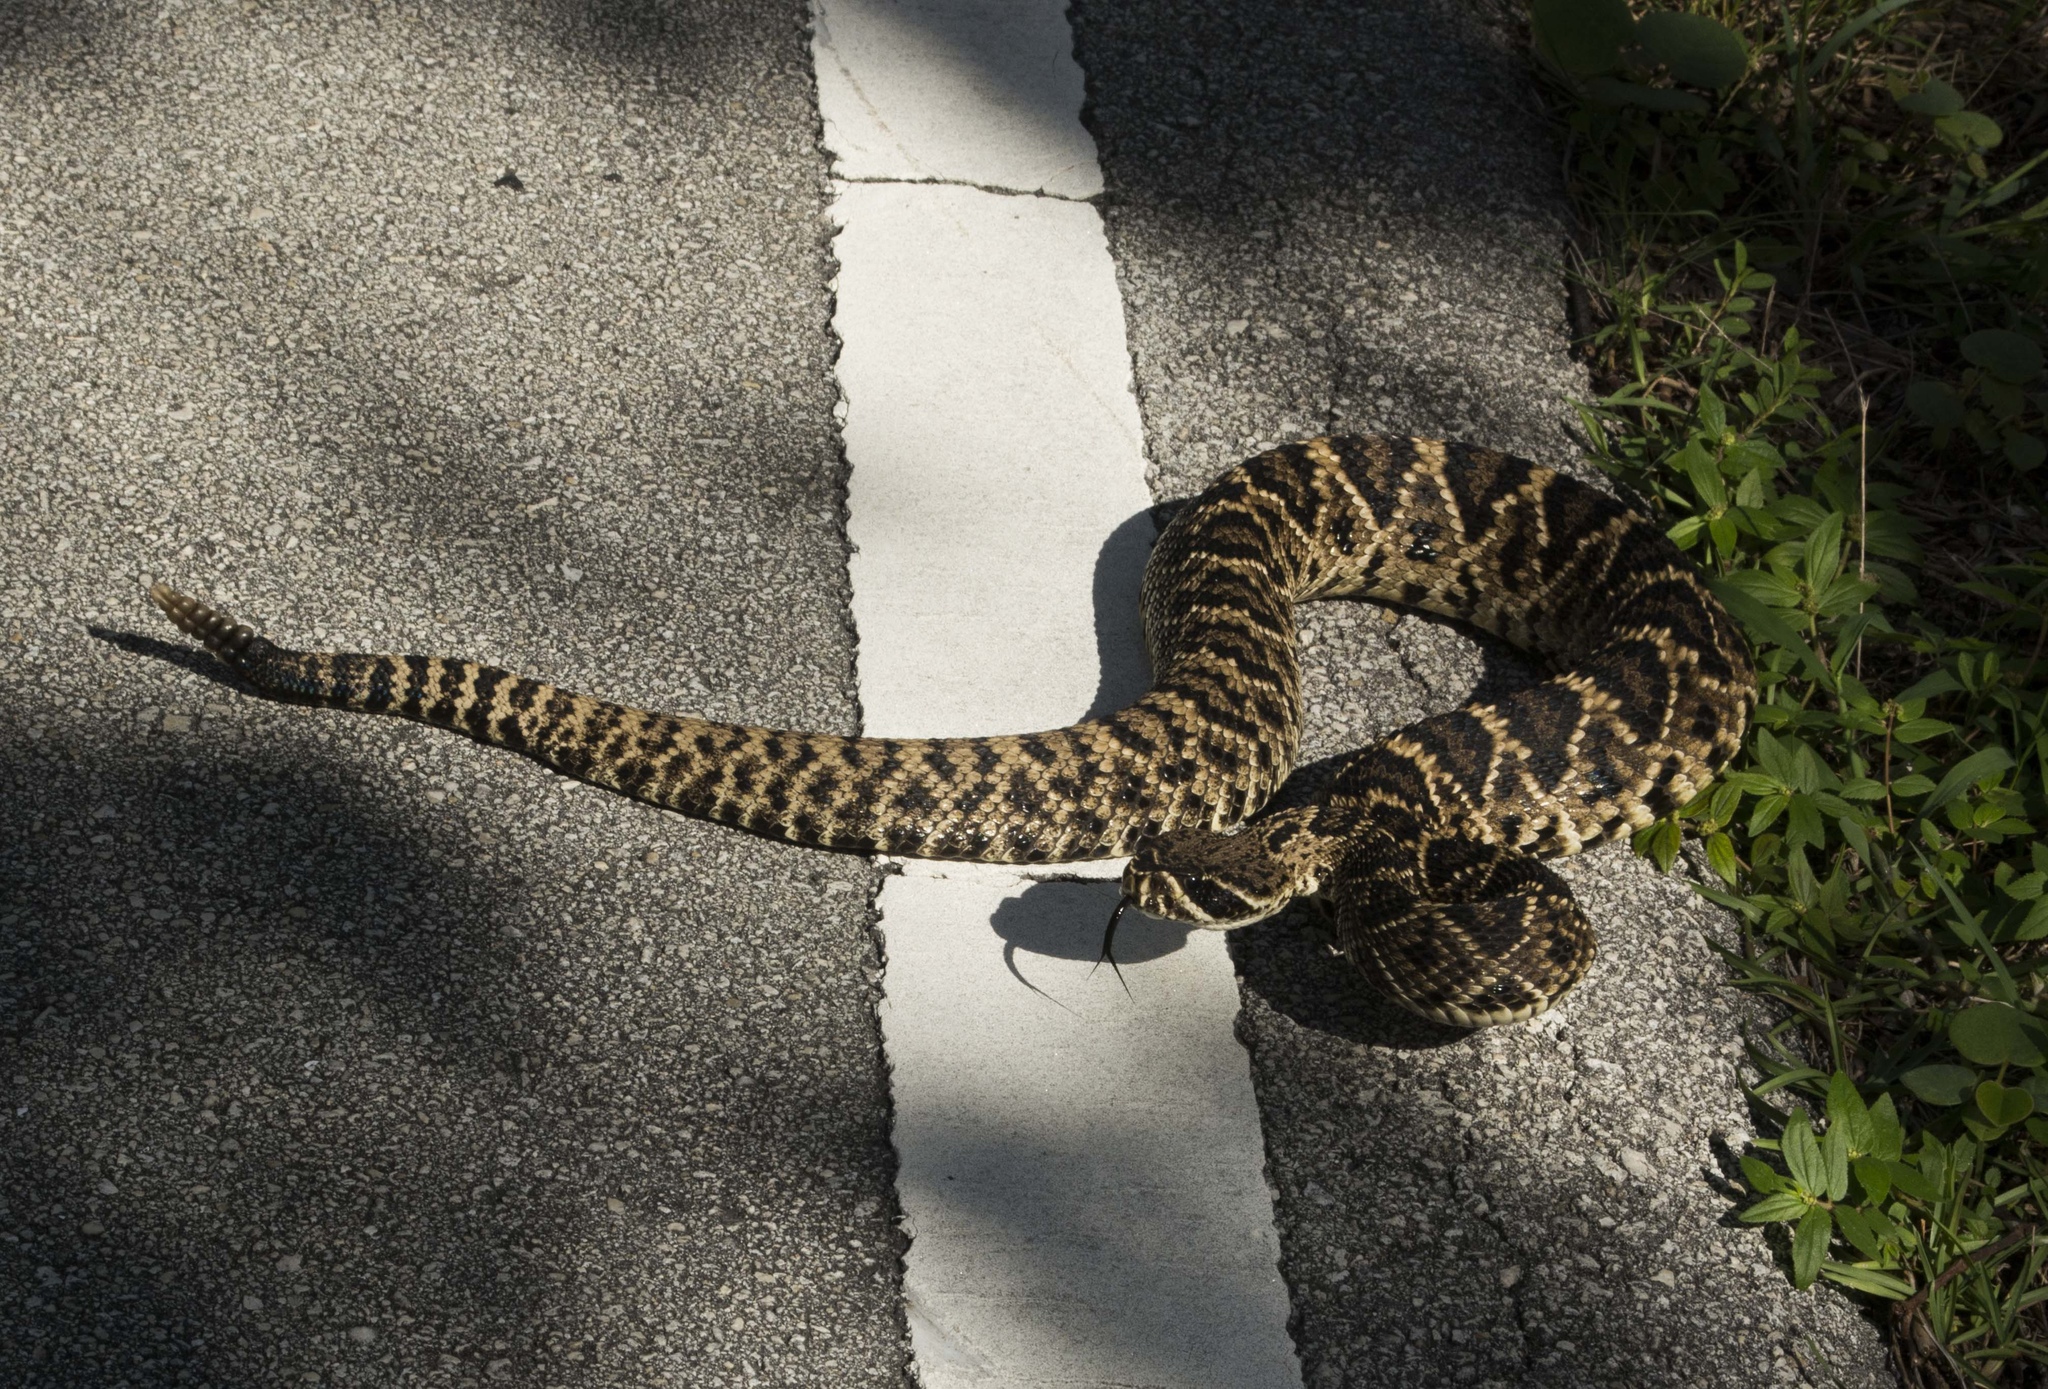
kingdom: Animalia
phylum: Chordata
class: Squamata
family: Viperidae
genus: Crotalus
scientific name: Crotalus adamanteus
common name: Eastern diamondback rattlesnake
